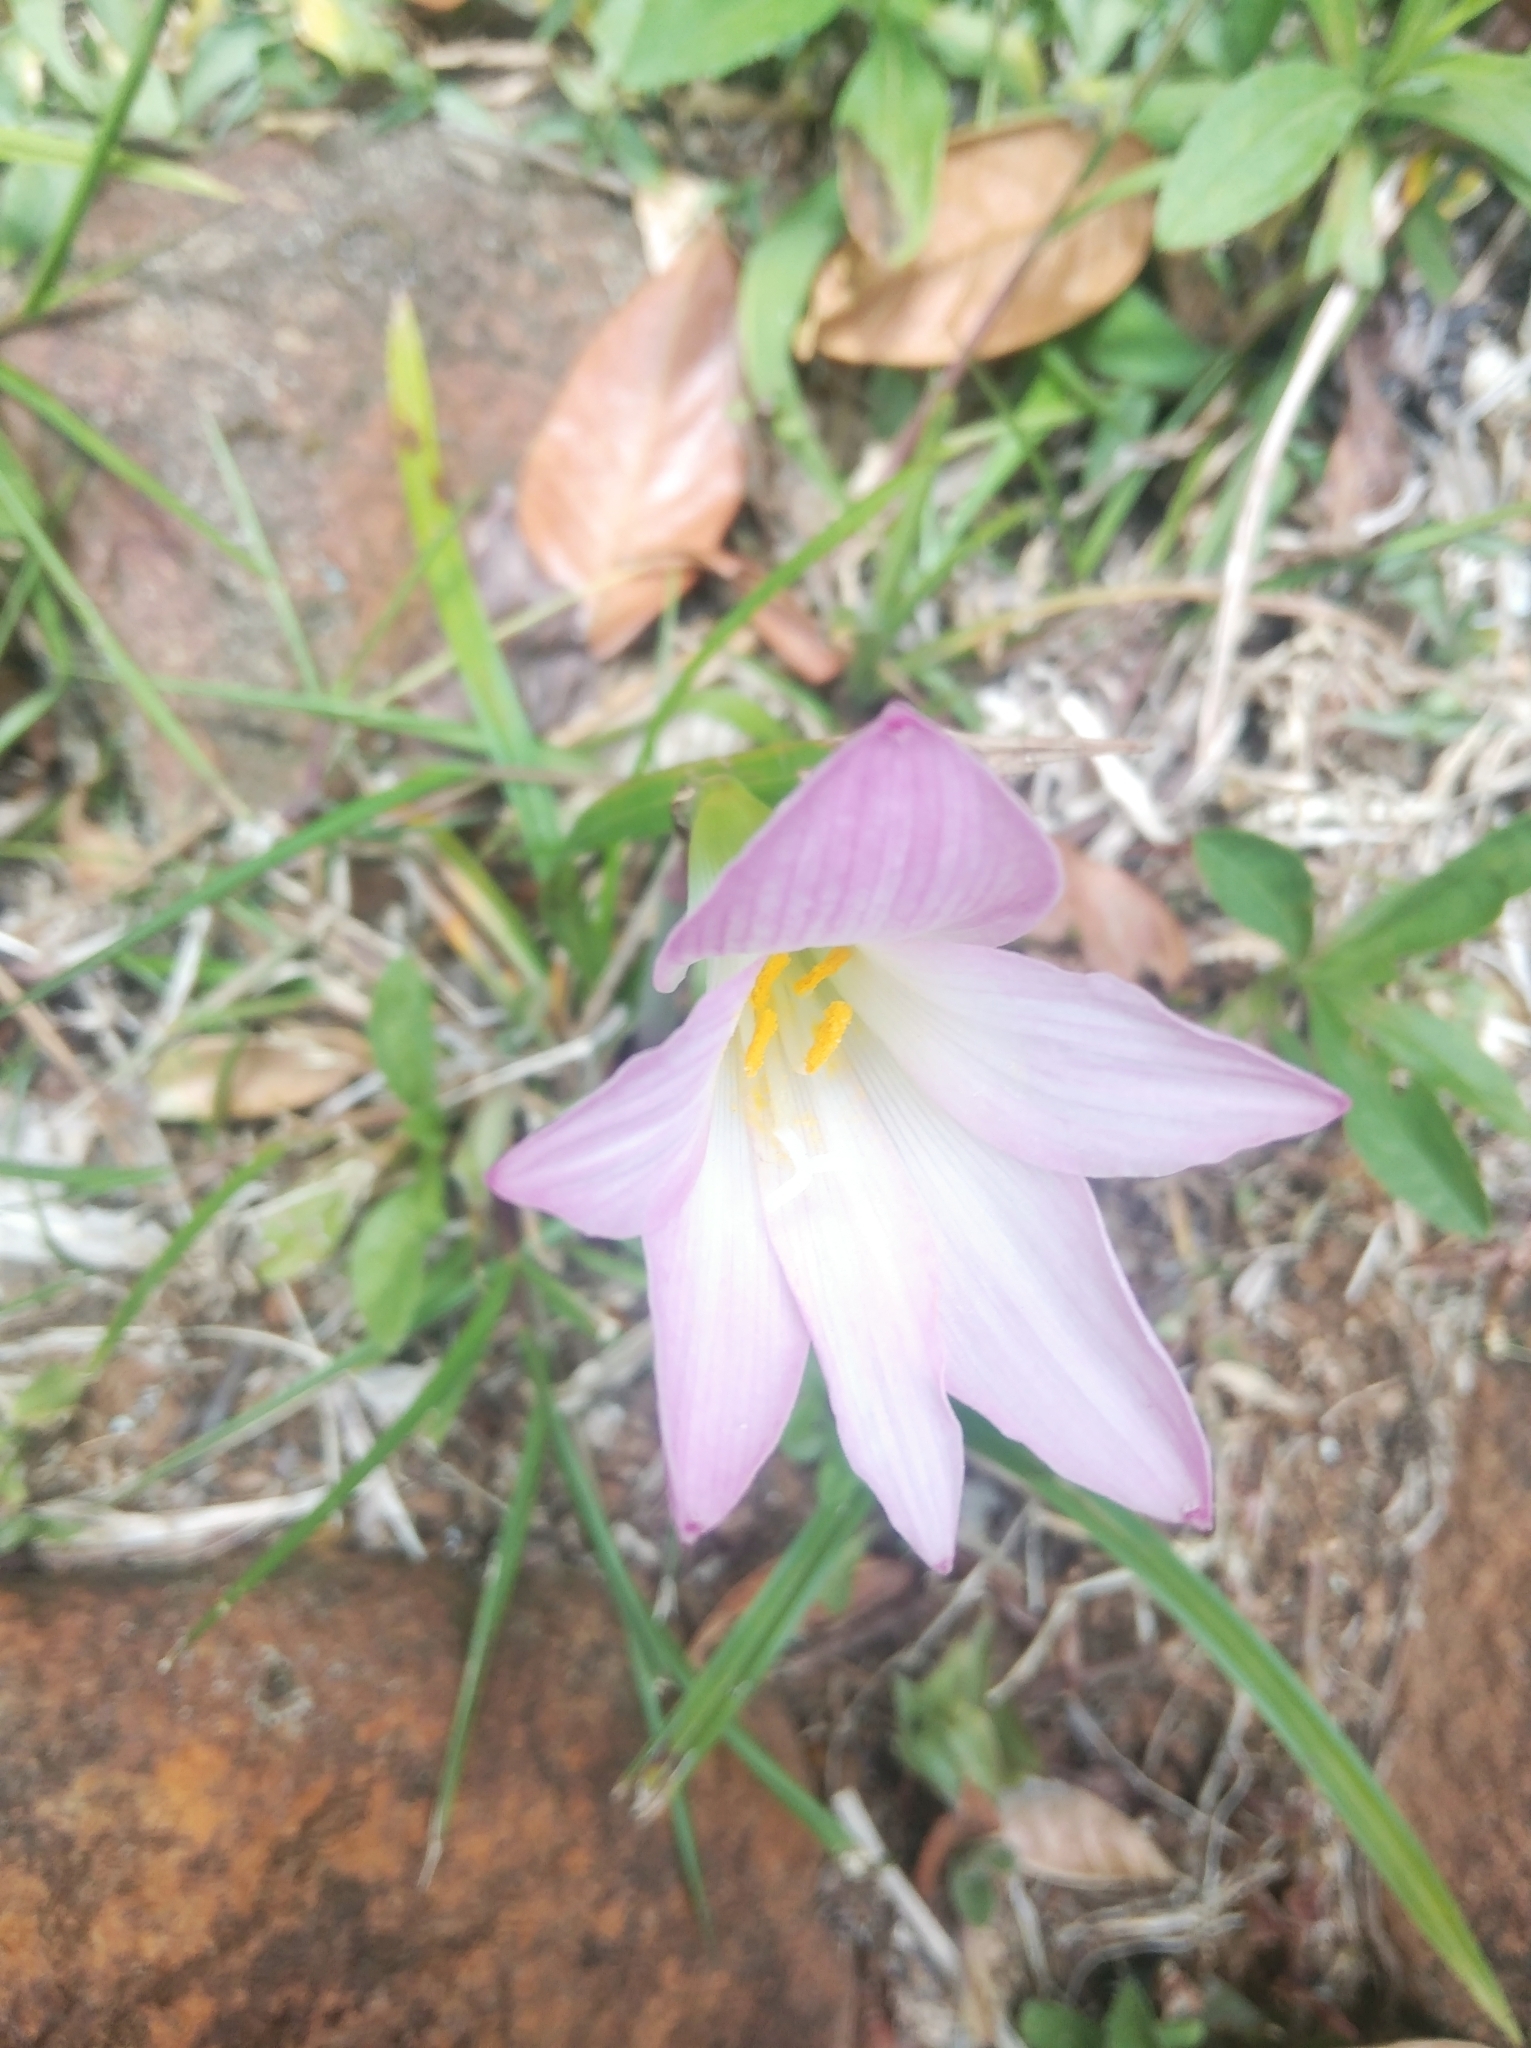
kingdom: Plantae
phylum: Tracheophyta
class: Liliopsida
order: Asparagales
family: Amaryllidaceae
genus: Zephyranthes
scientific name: Zephyranthes robusta
